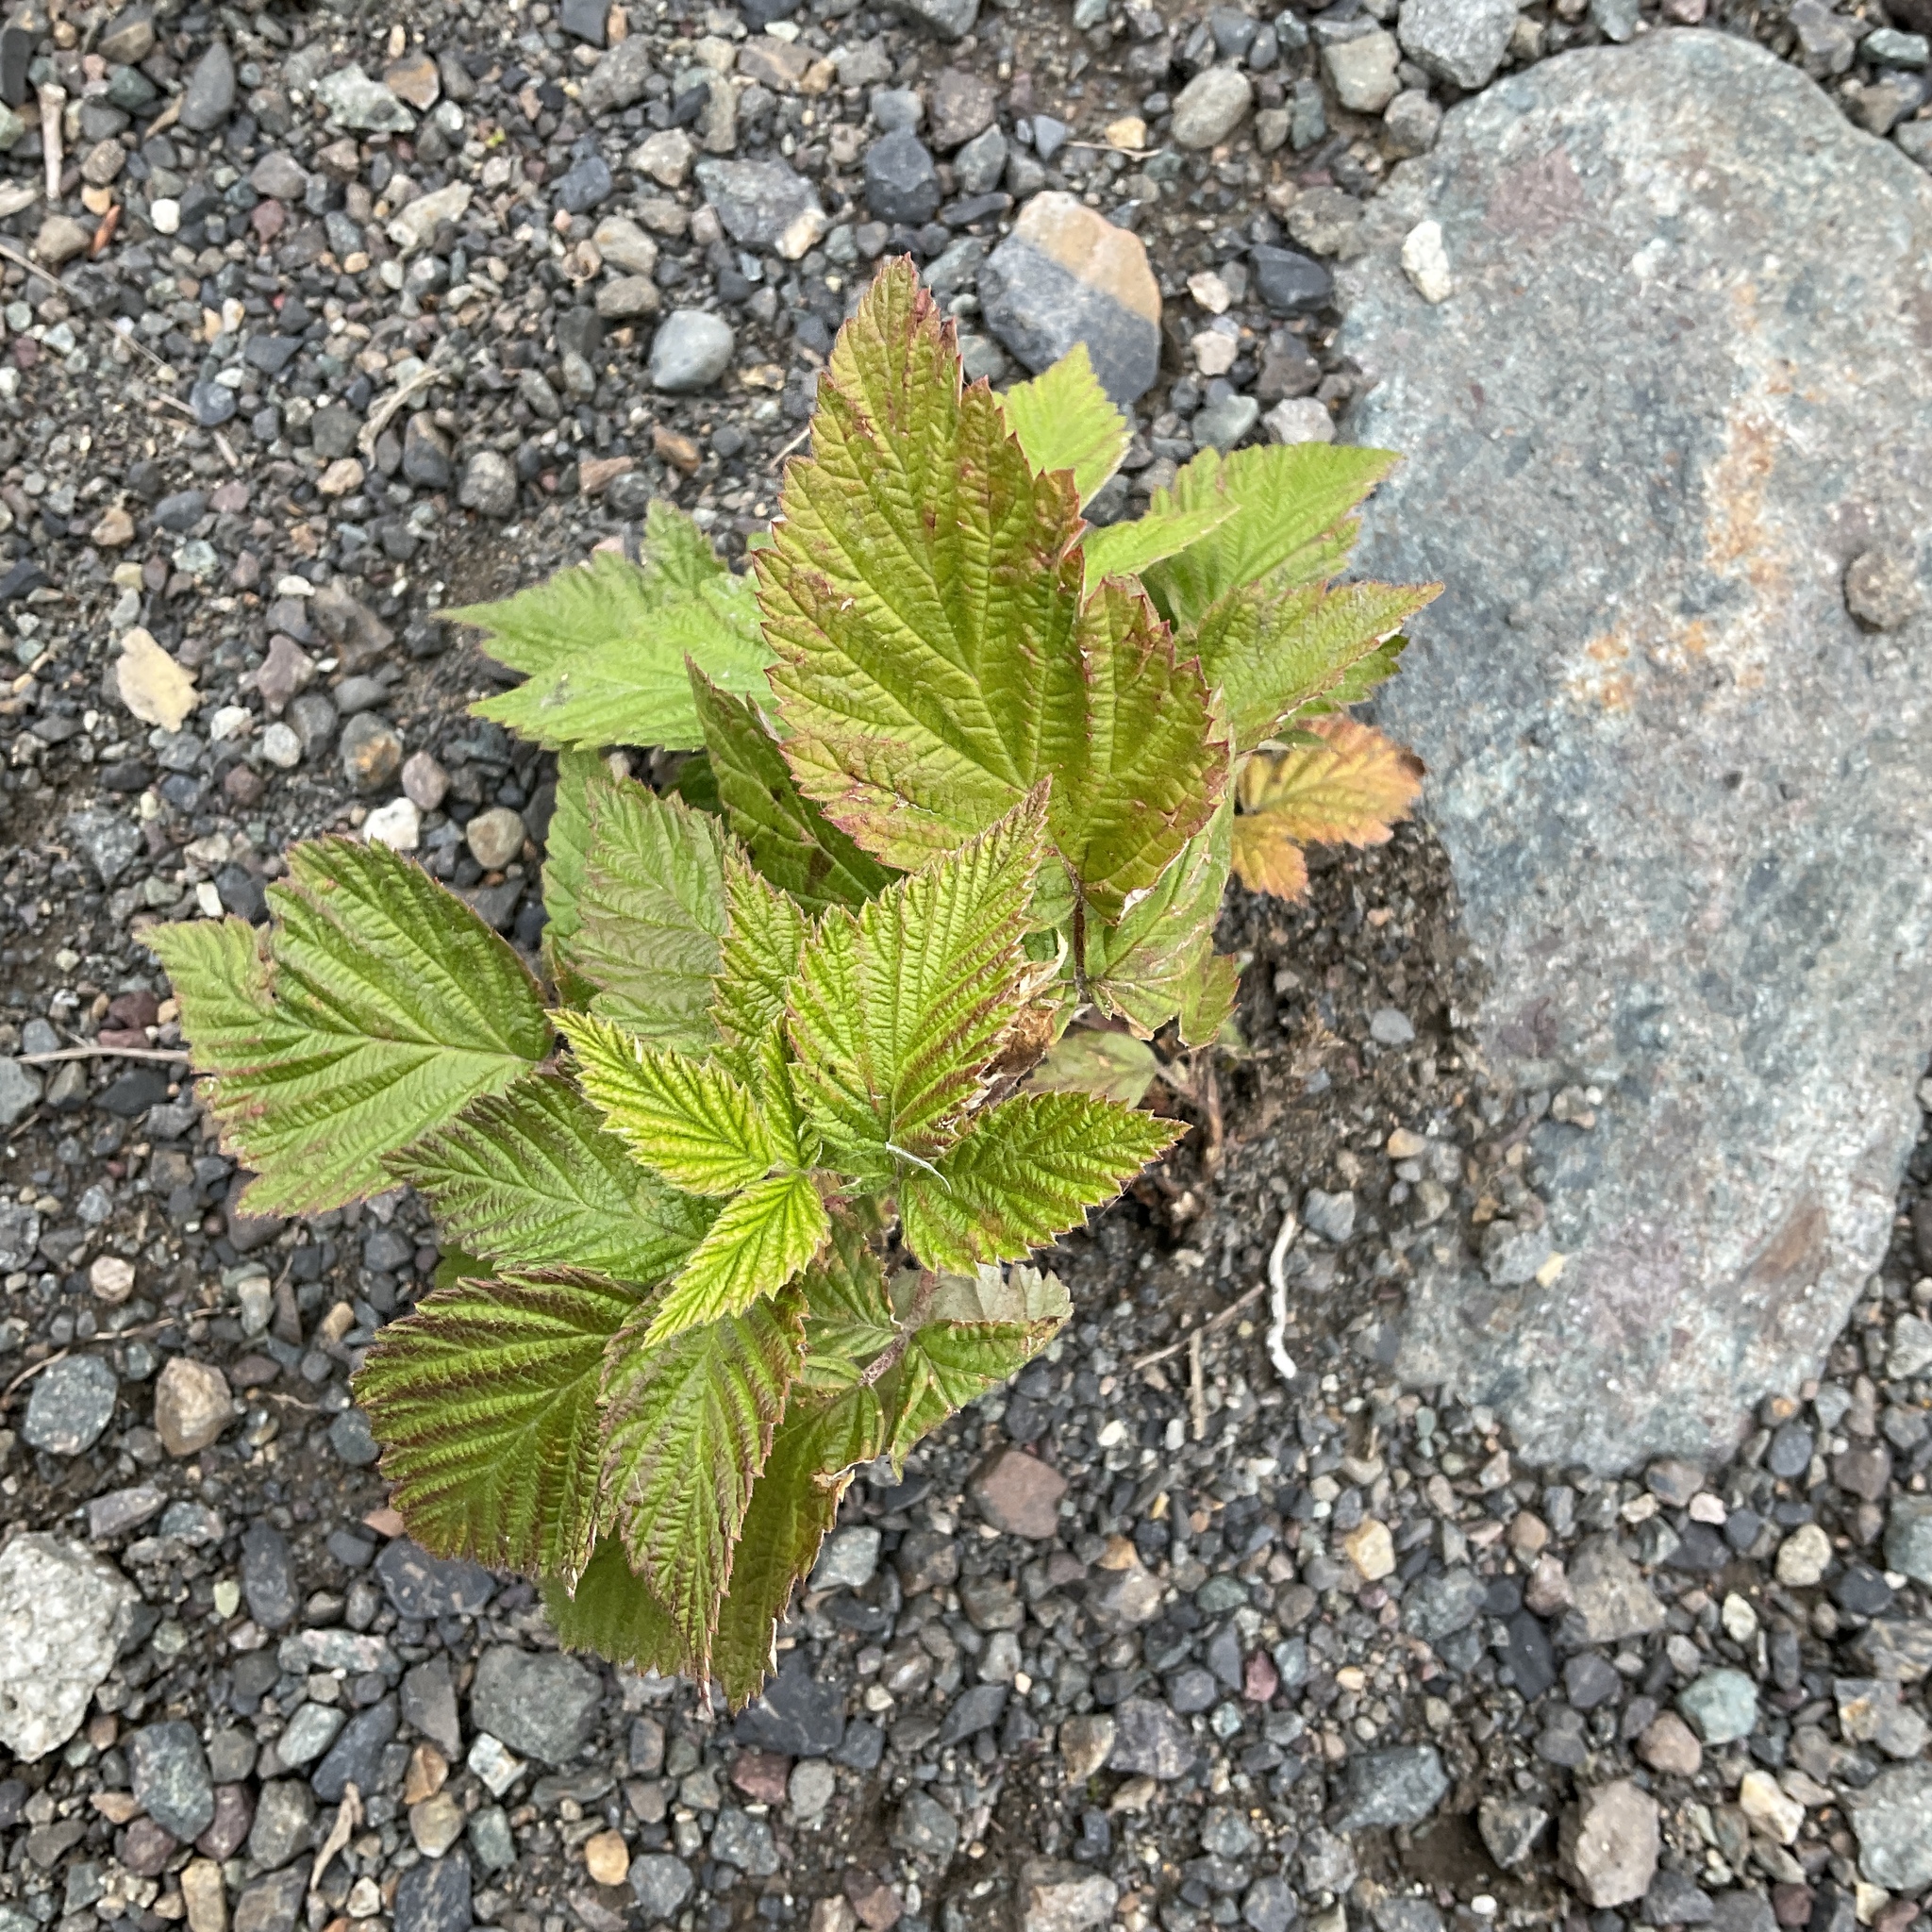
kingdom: Plantae
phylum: Tracheophyta
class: Magnoliopsida
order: Rosales
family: Rosaceae
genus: Rubus
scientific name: Rubus idaeus
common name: Raspberry
